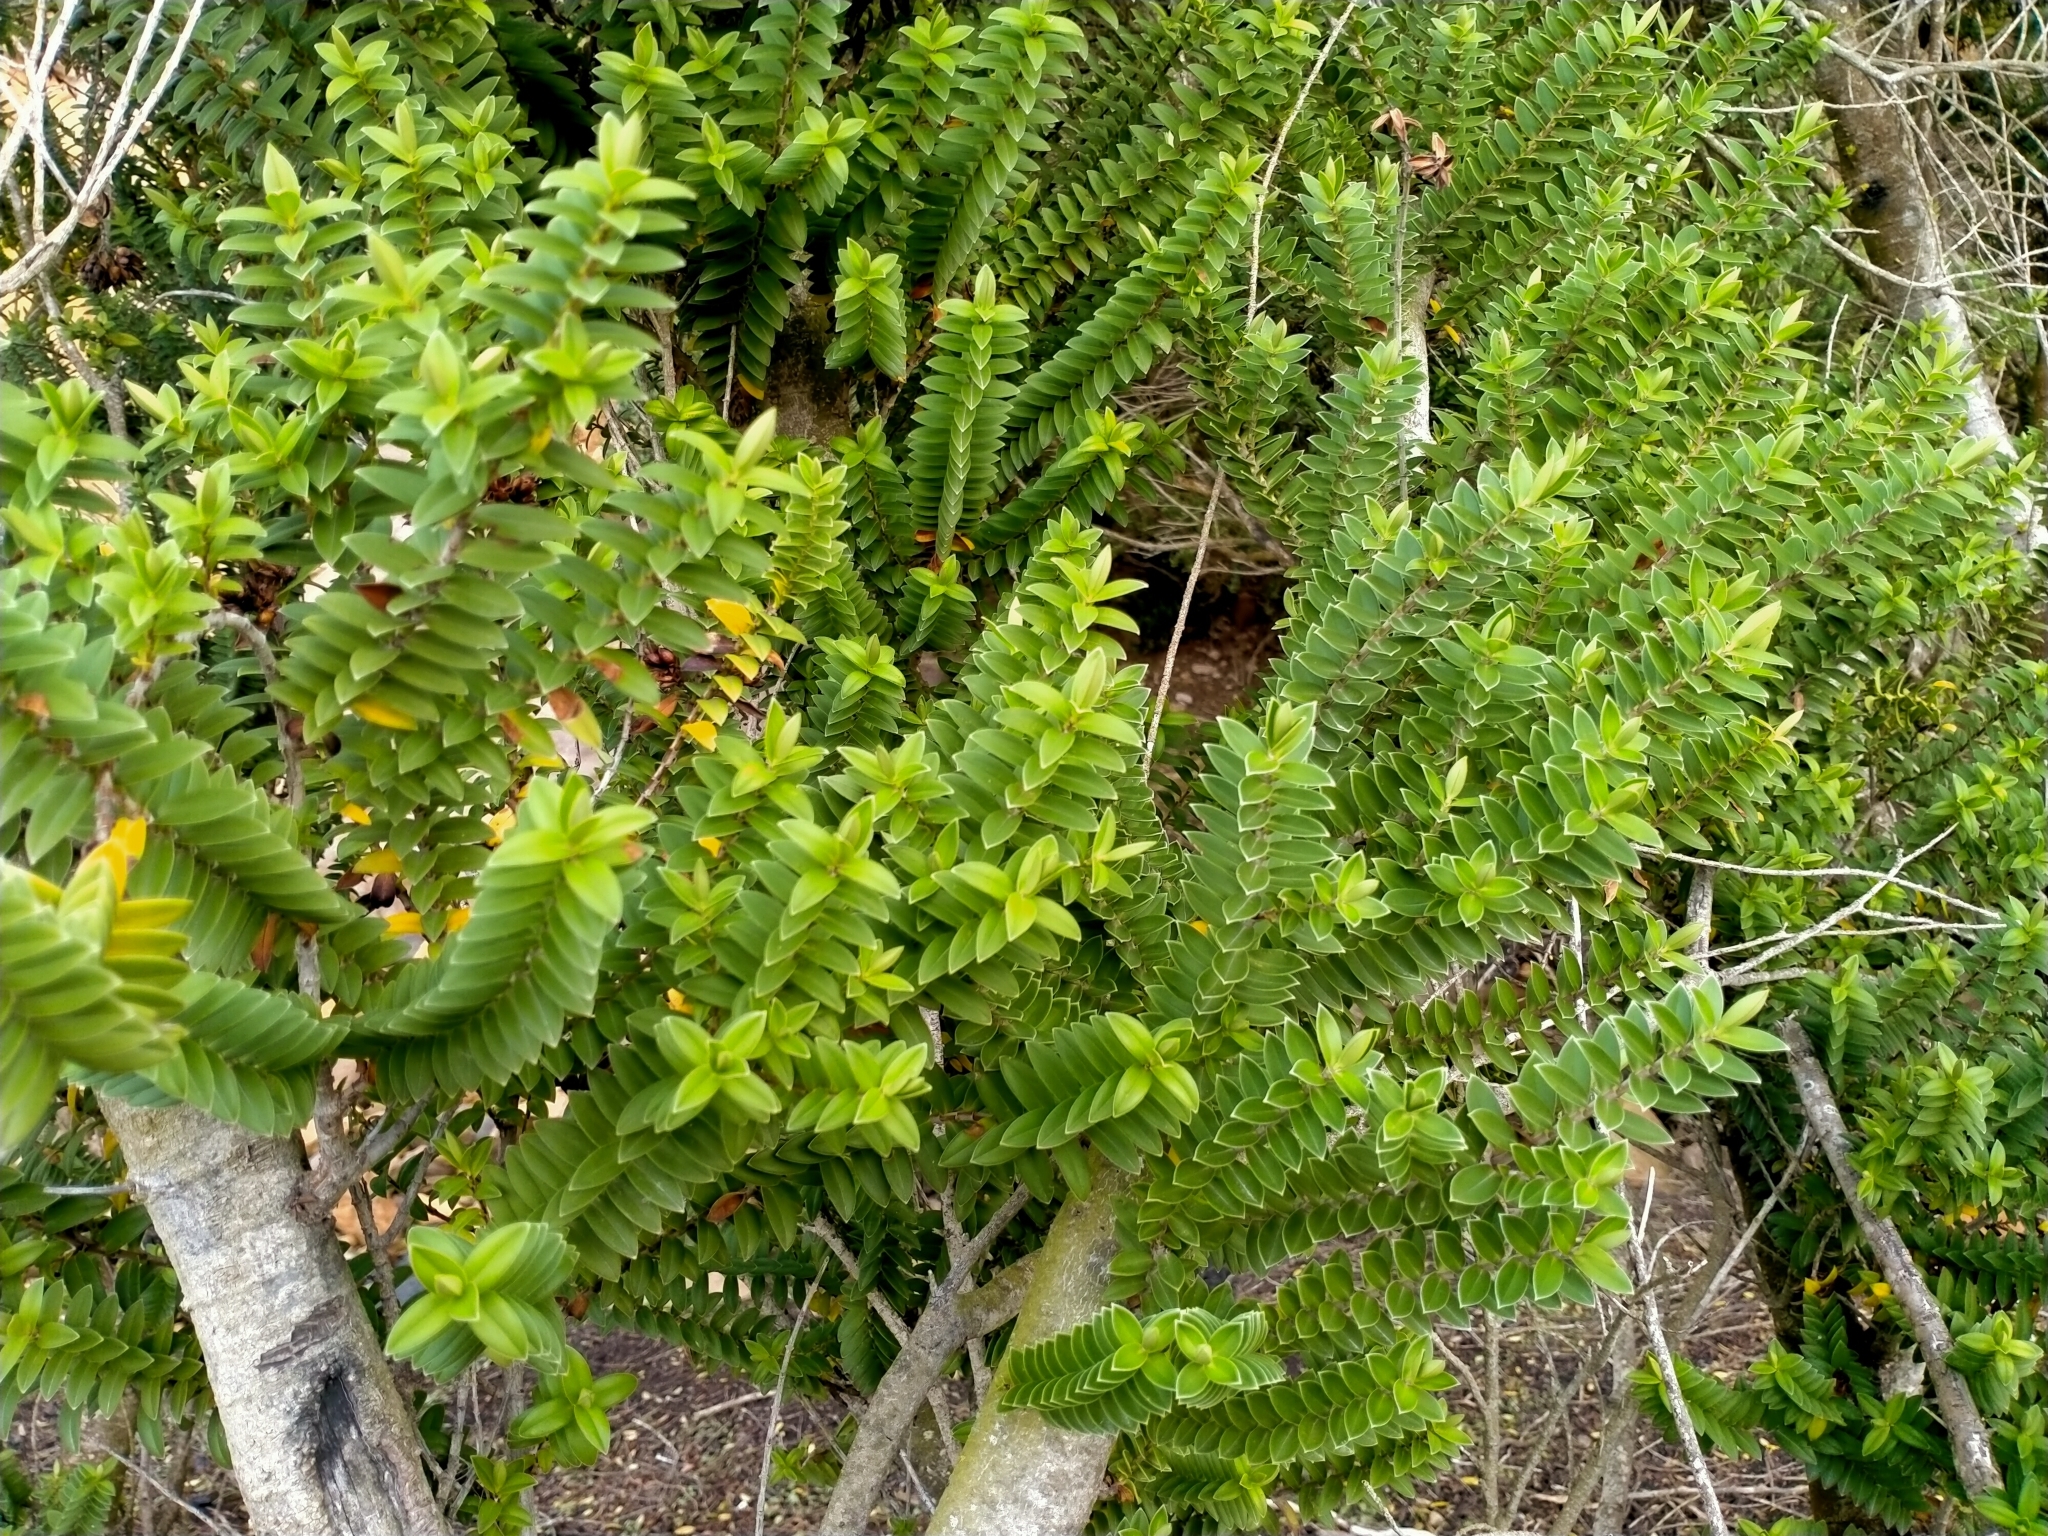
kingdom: Plantae
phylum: Tracheophyta
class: Magnoliopsida
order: Lamiales
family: Plantaginaceae
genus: Veronica
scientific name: Veronica elliptica
